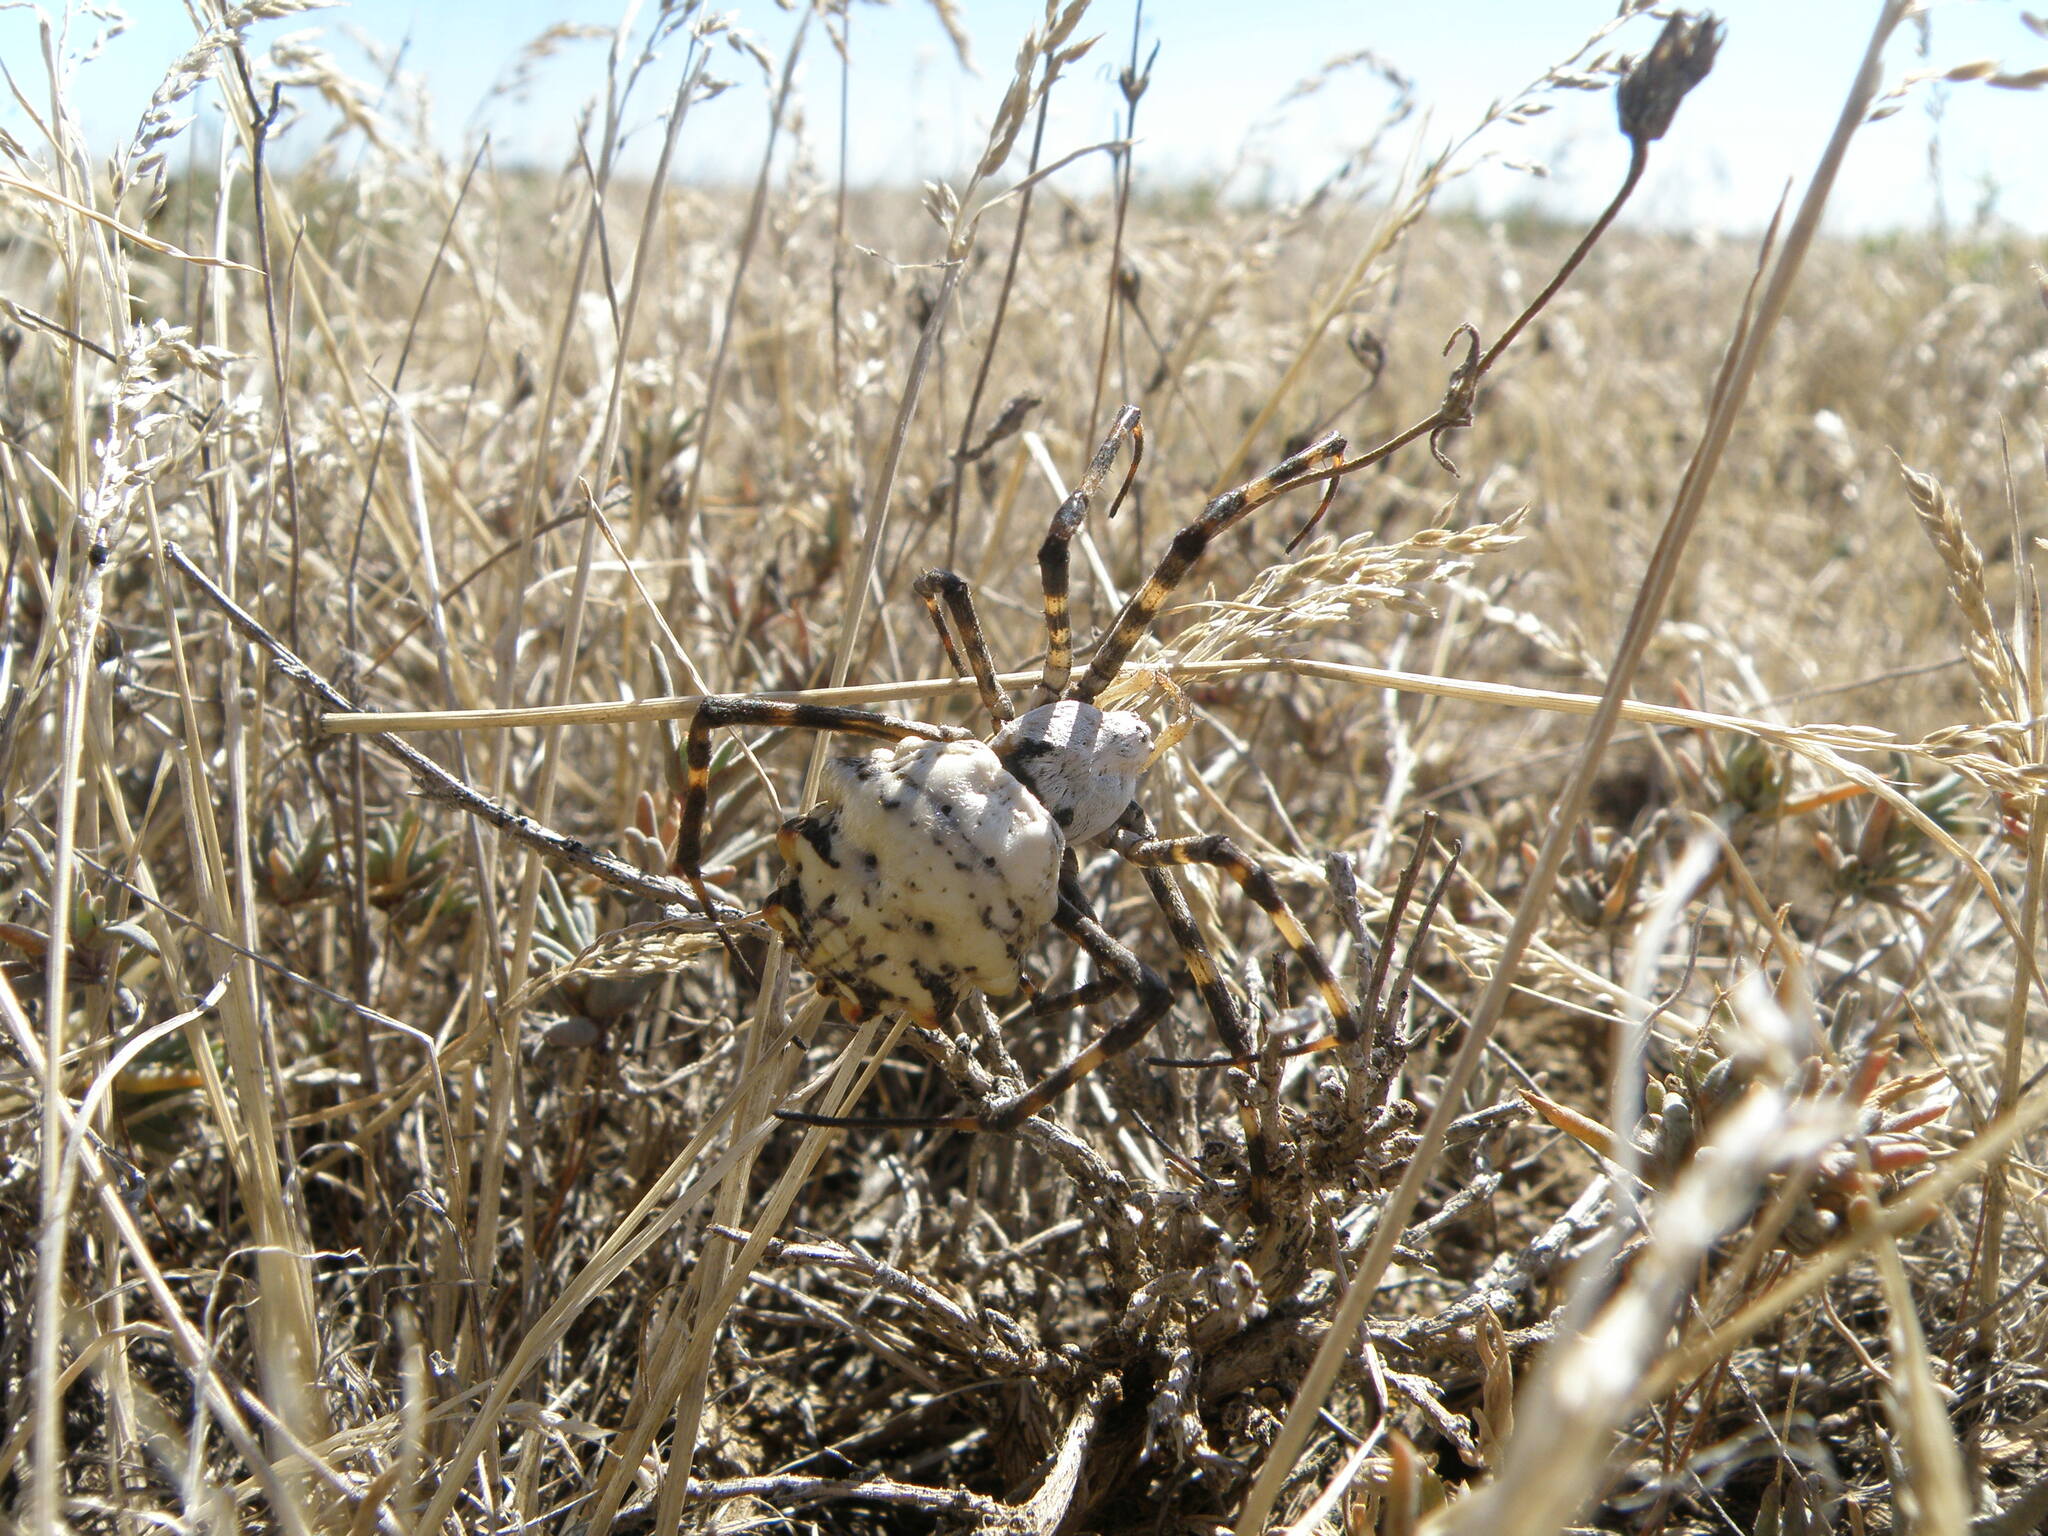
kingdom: Animalia
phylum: Arthropoda
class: Arachnida
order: Araneae
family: Araneidae
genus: Argiope
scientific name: Argiope lobata
